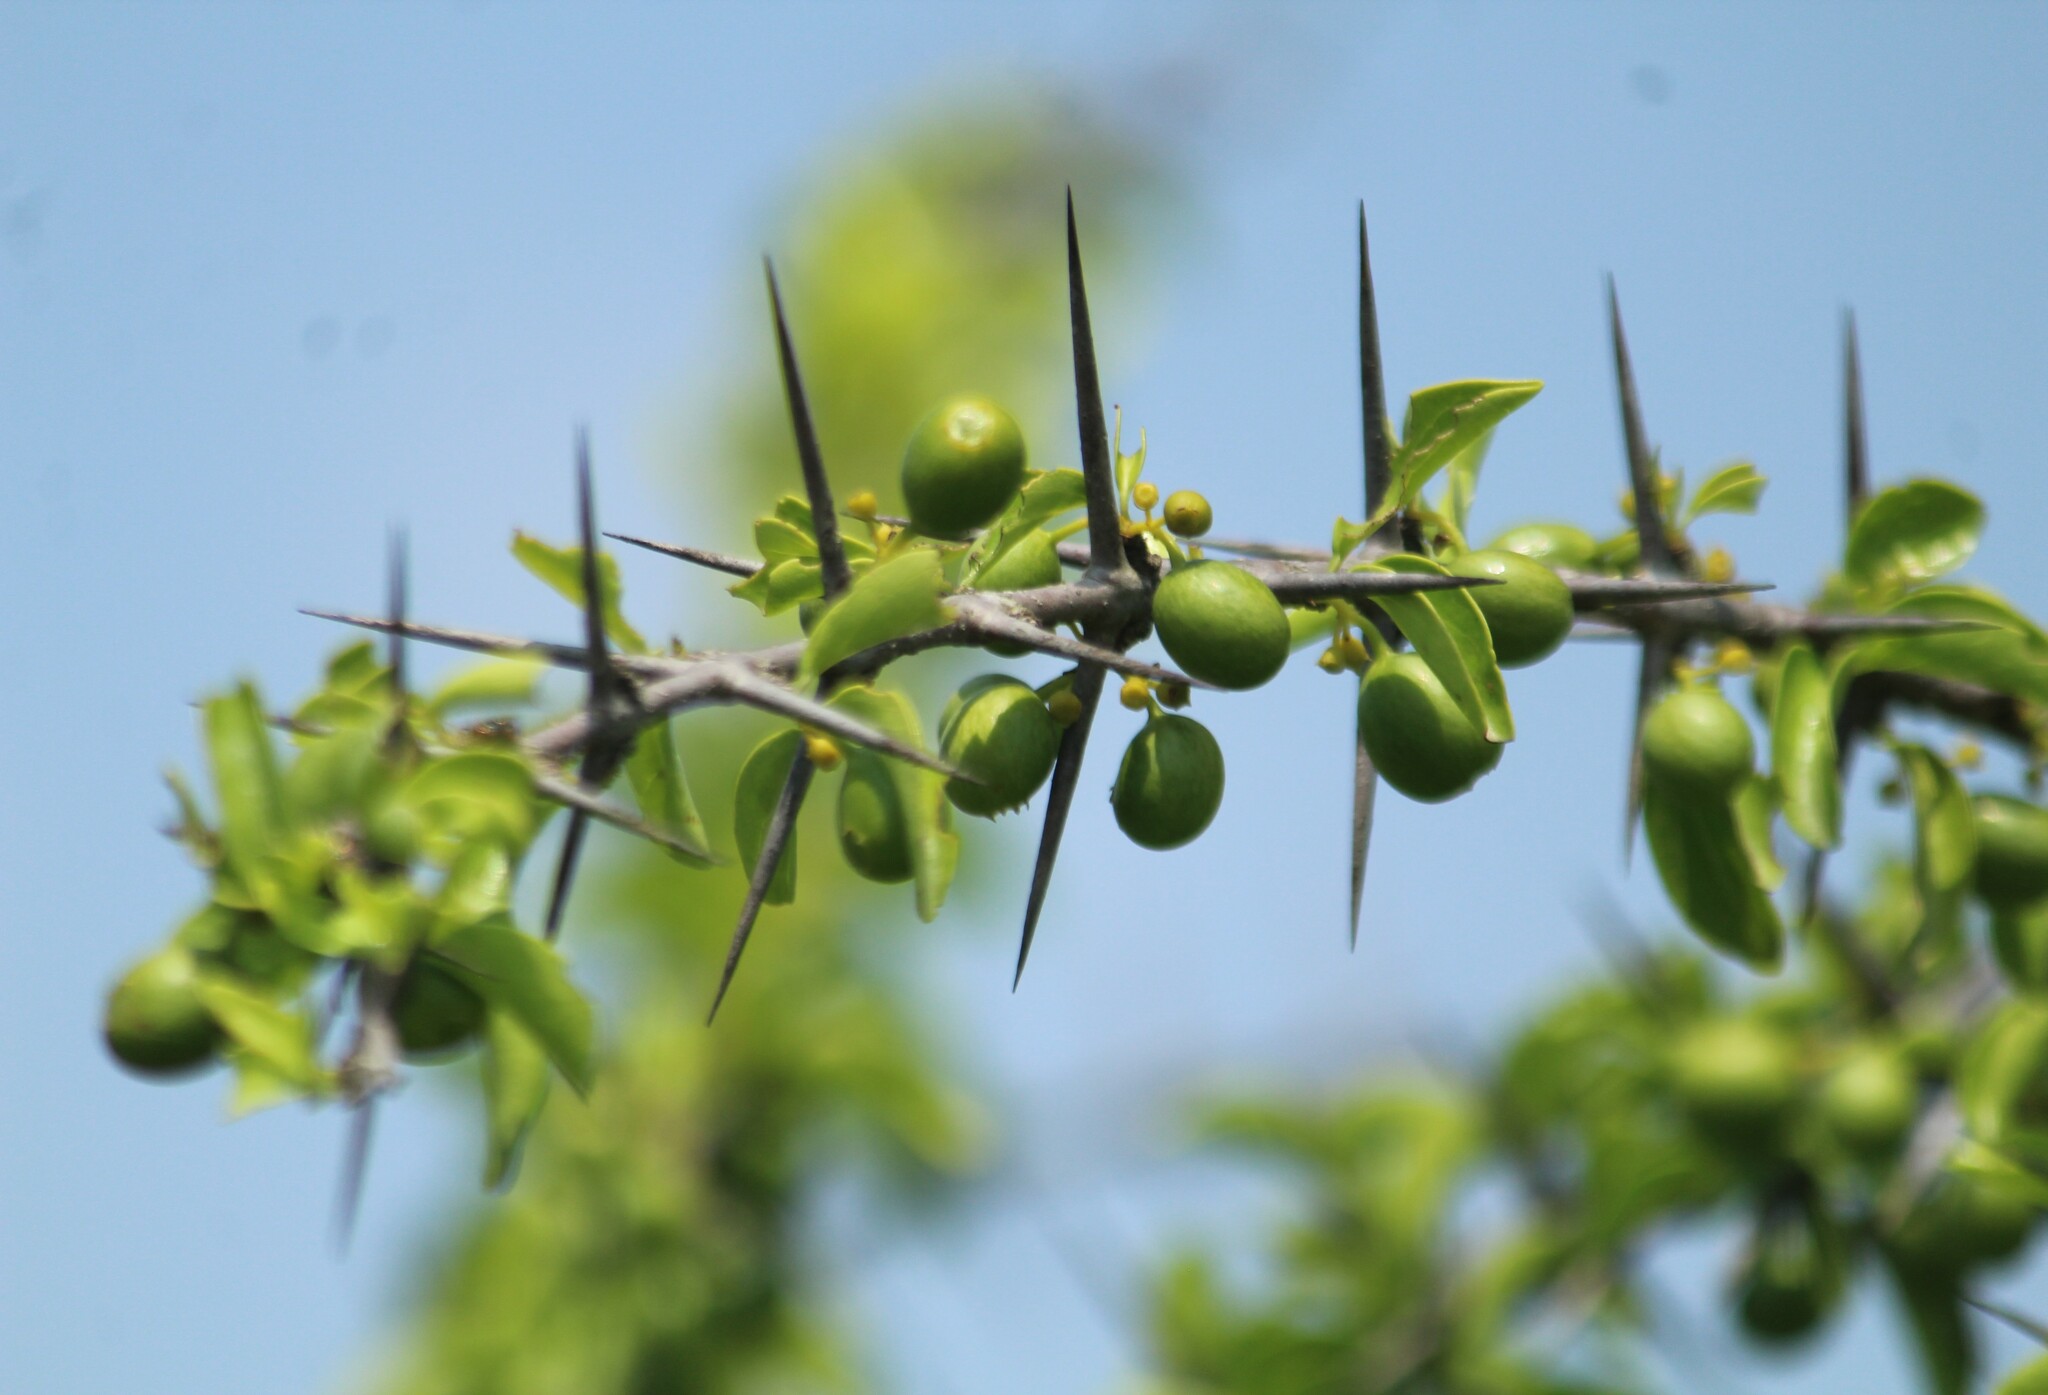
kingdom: Plantae
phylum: Tracheophyta
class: Magnoliopsida
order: Gentianales
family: Rubiaceae
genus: Canthium
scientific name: Canthium coromandelicum
